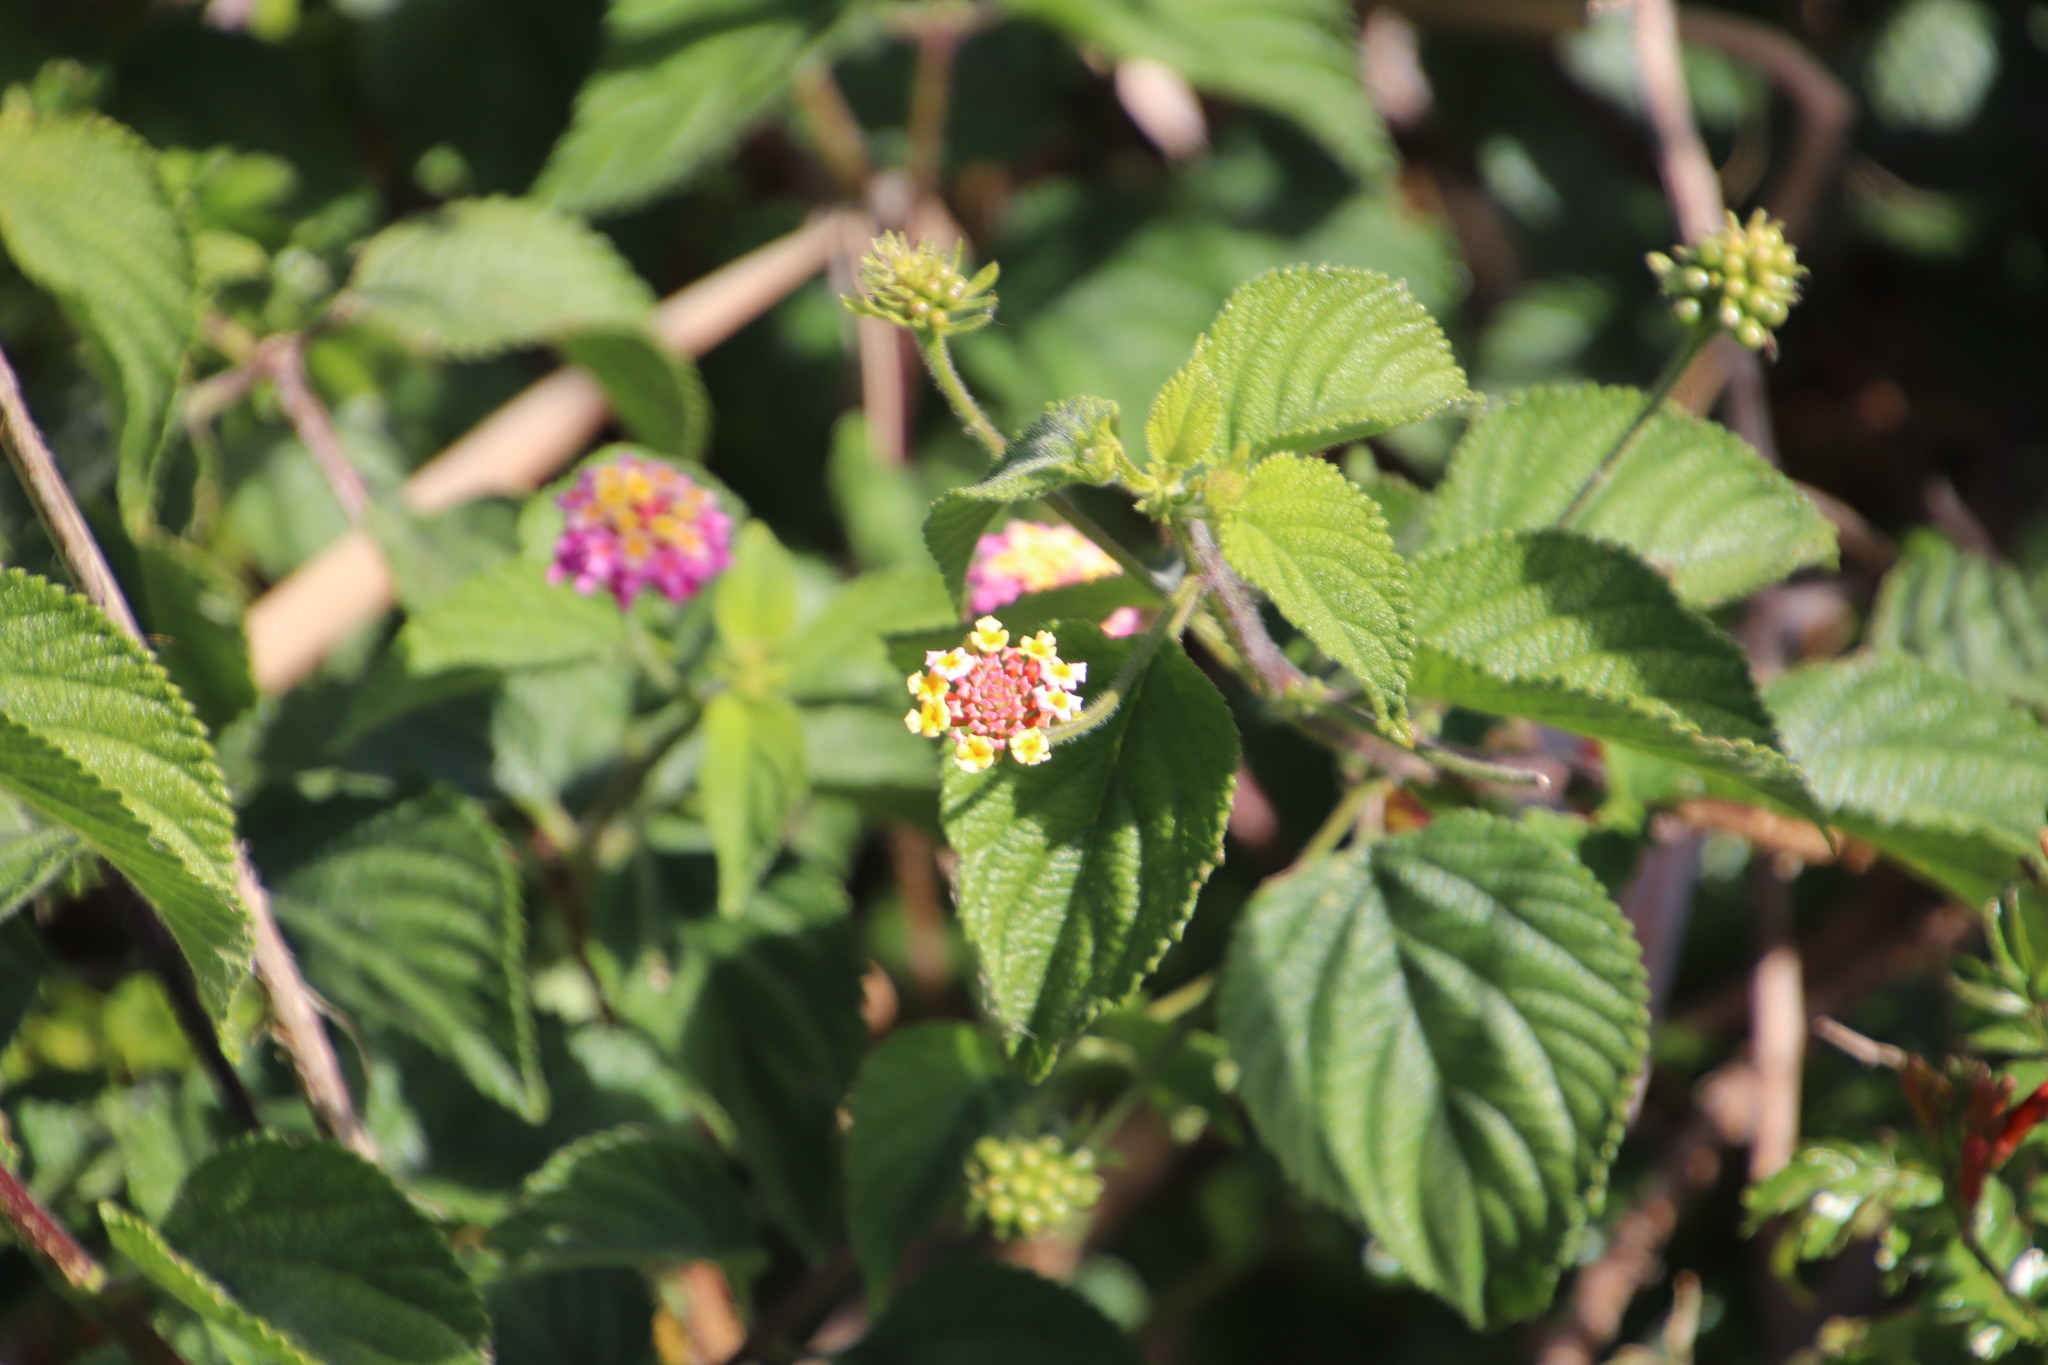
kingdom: Plantae
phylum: Tracheophyta
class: Magnoliopsida
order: Lamiales
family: Verbenaceae
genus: Lantana
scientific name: Lantana camara
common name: Lantana
